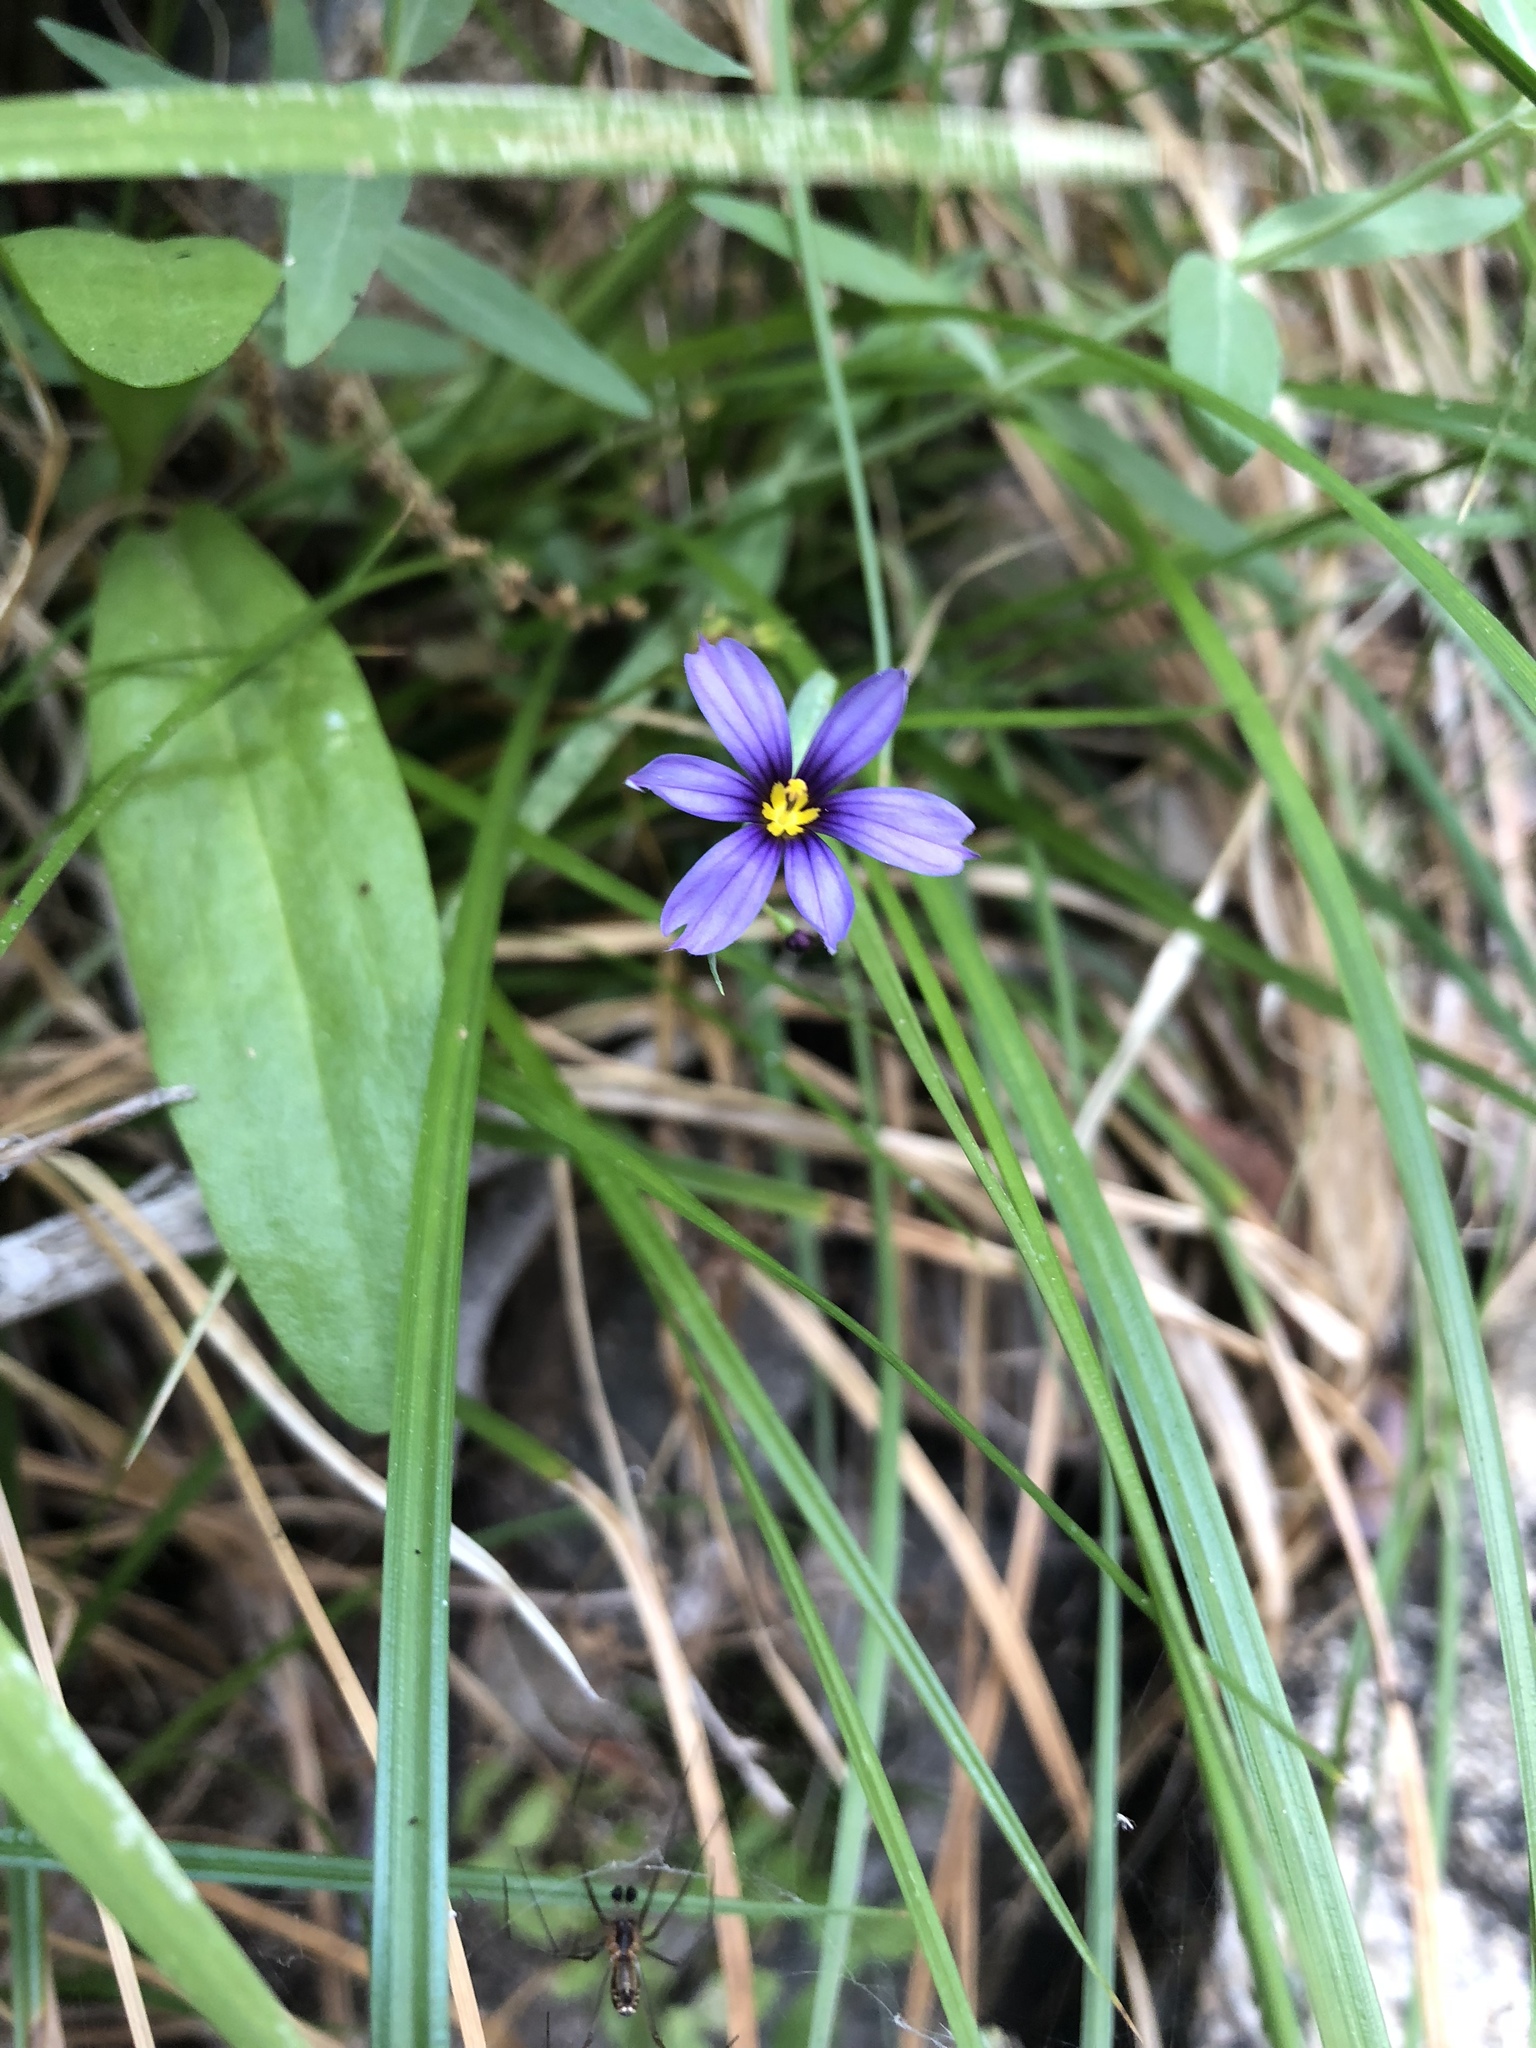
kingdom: Plantae
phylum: Tracheophyta
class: Liliopsida
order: Asparagales
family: Iridaceae
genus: Sisyrinchium
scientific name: Sisyrinchium bellum
